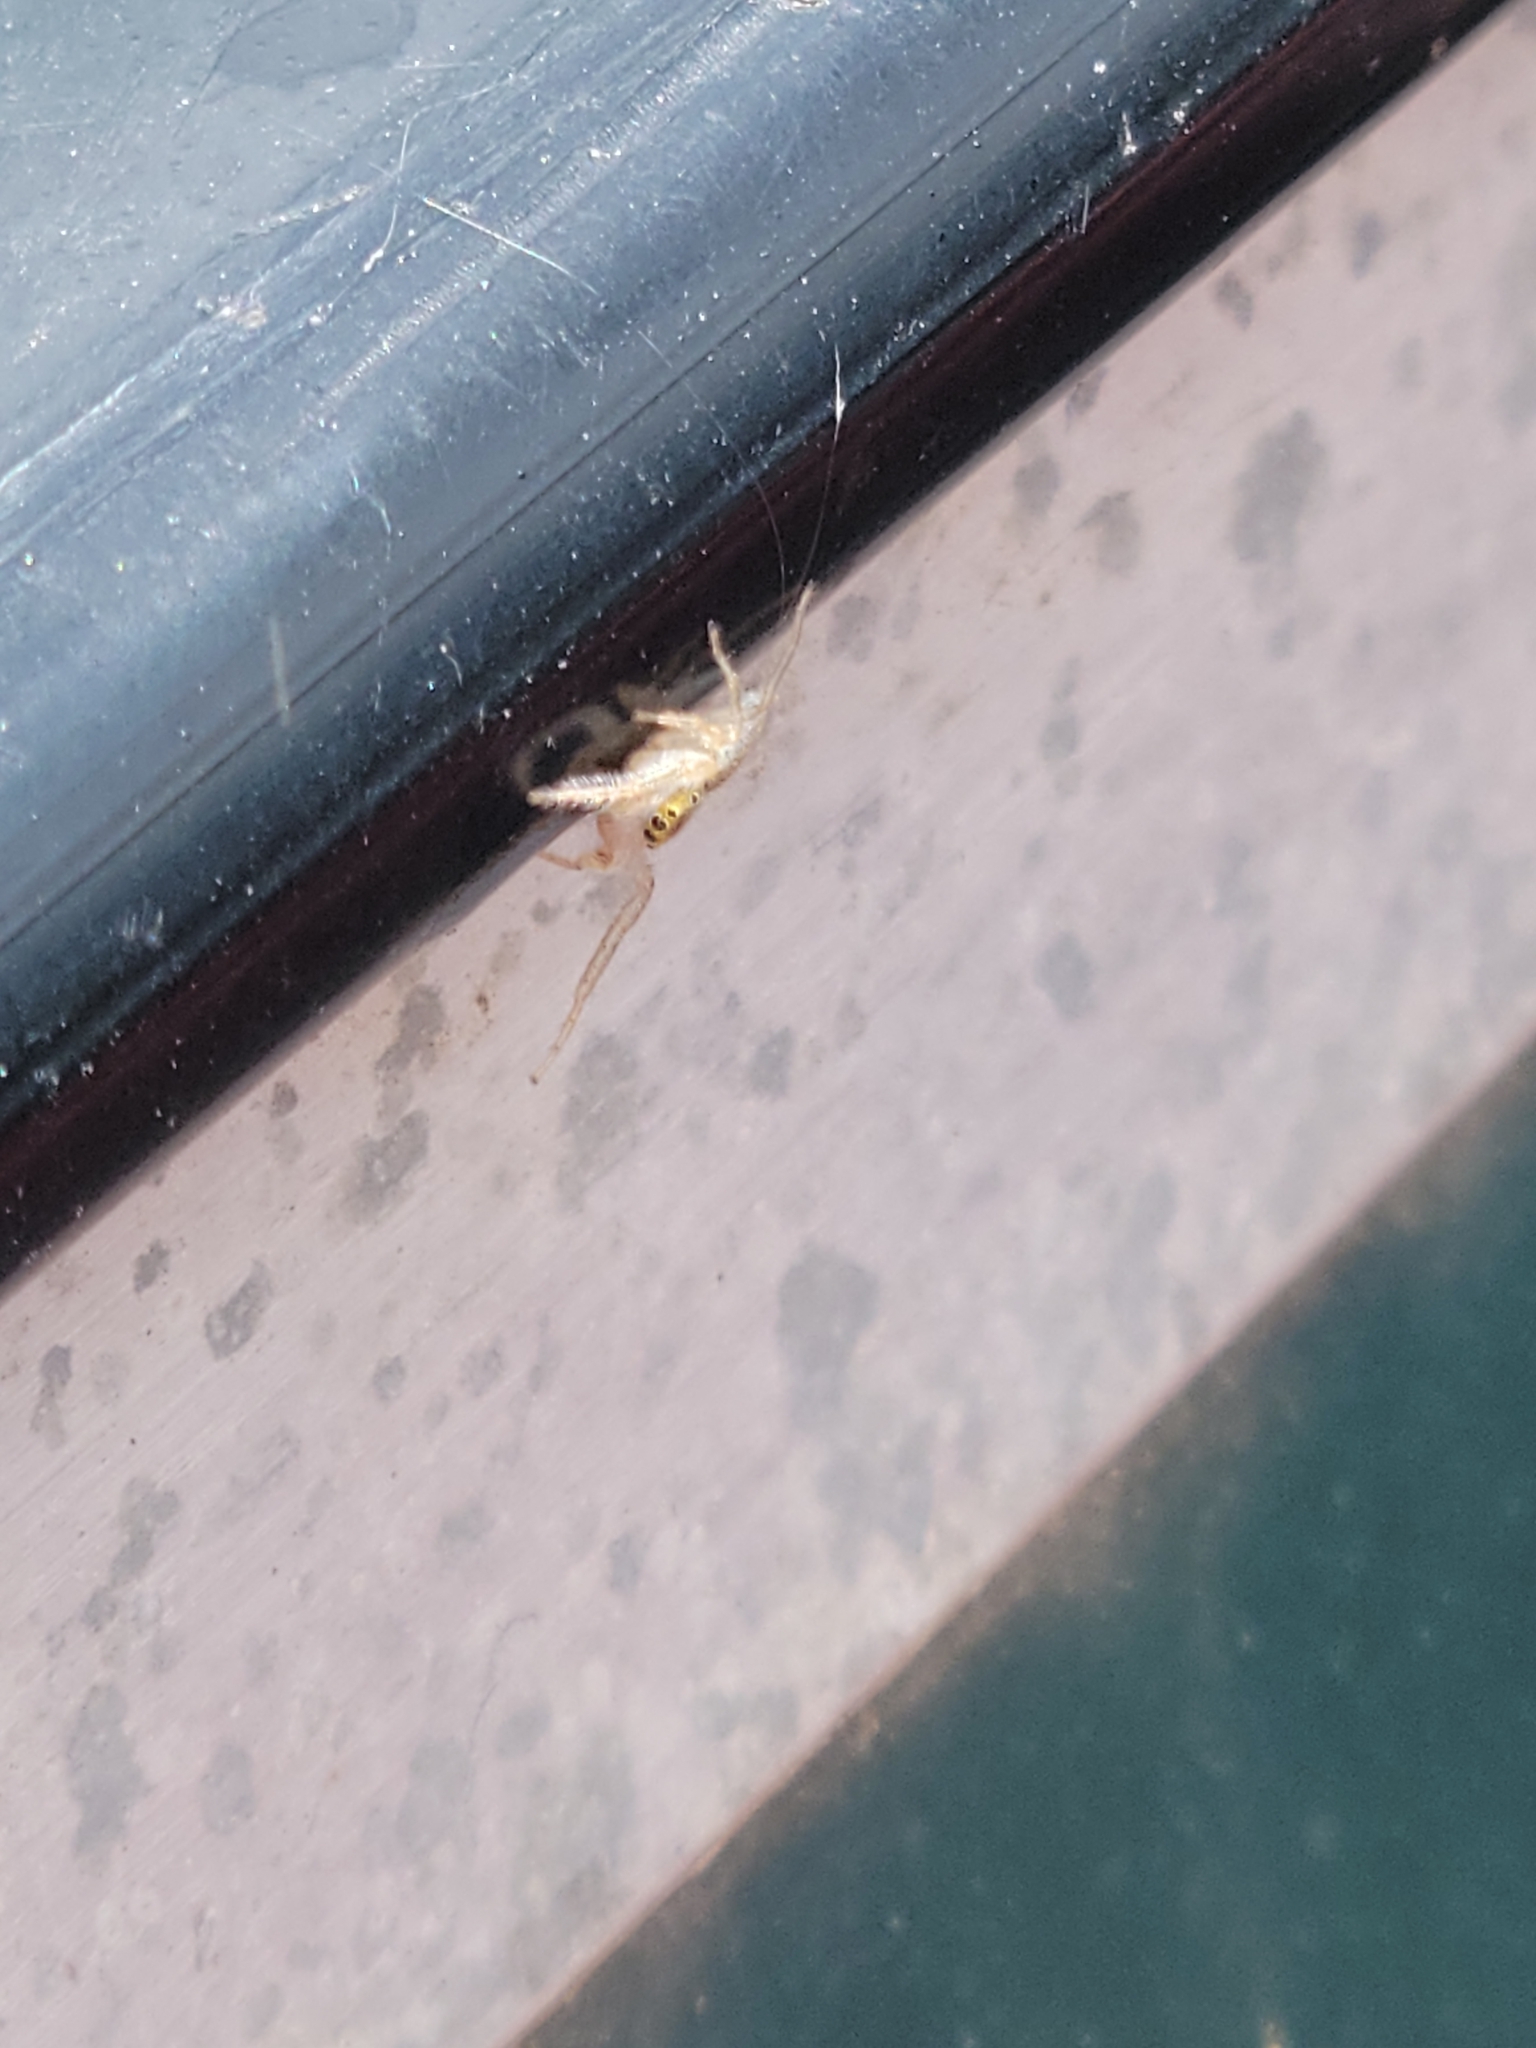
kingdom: Animalia
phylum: Arthropoda
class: Arachnida
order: Araneae
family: Salticidae
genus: Hentzia
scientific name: Hentzia mitrata
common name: White-jawed jumping spider
